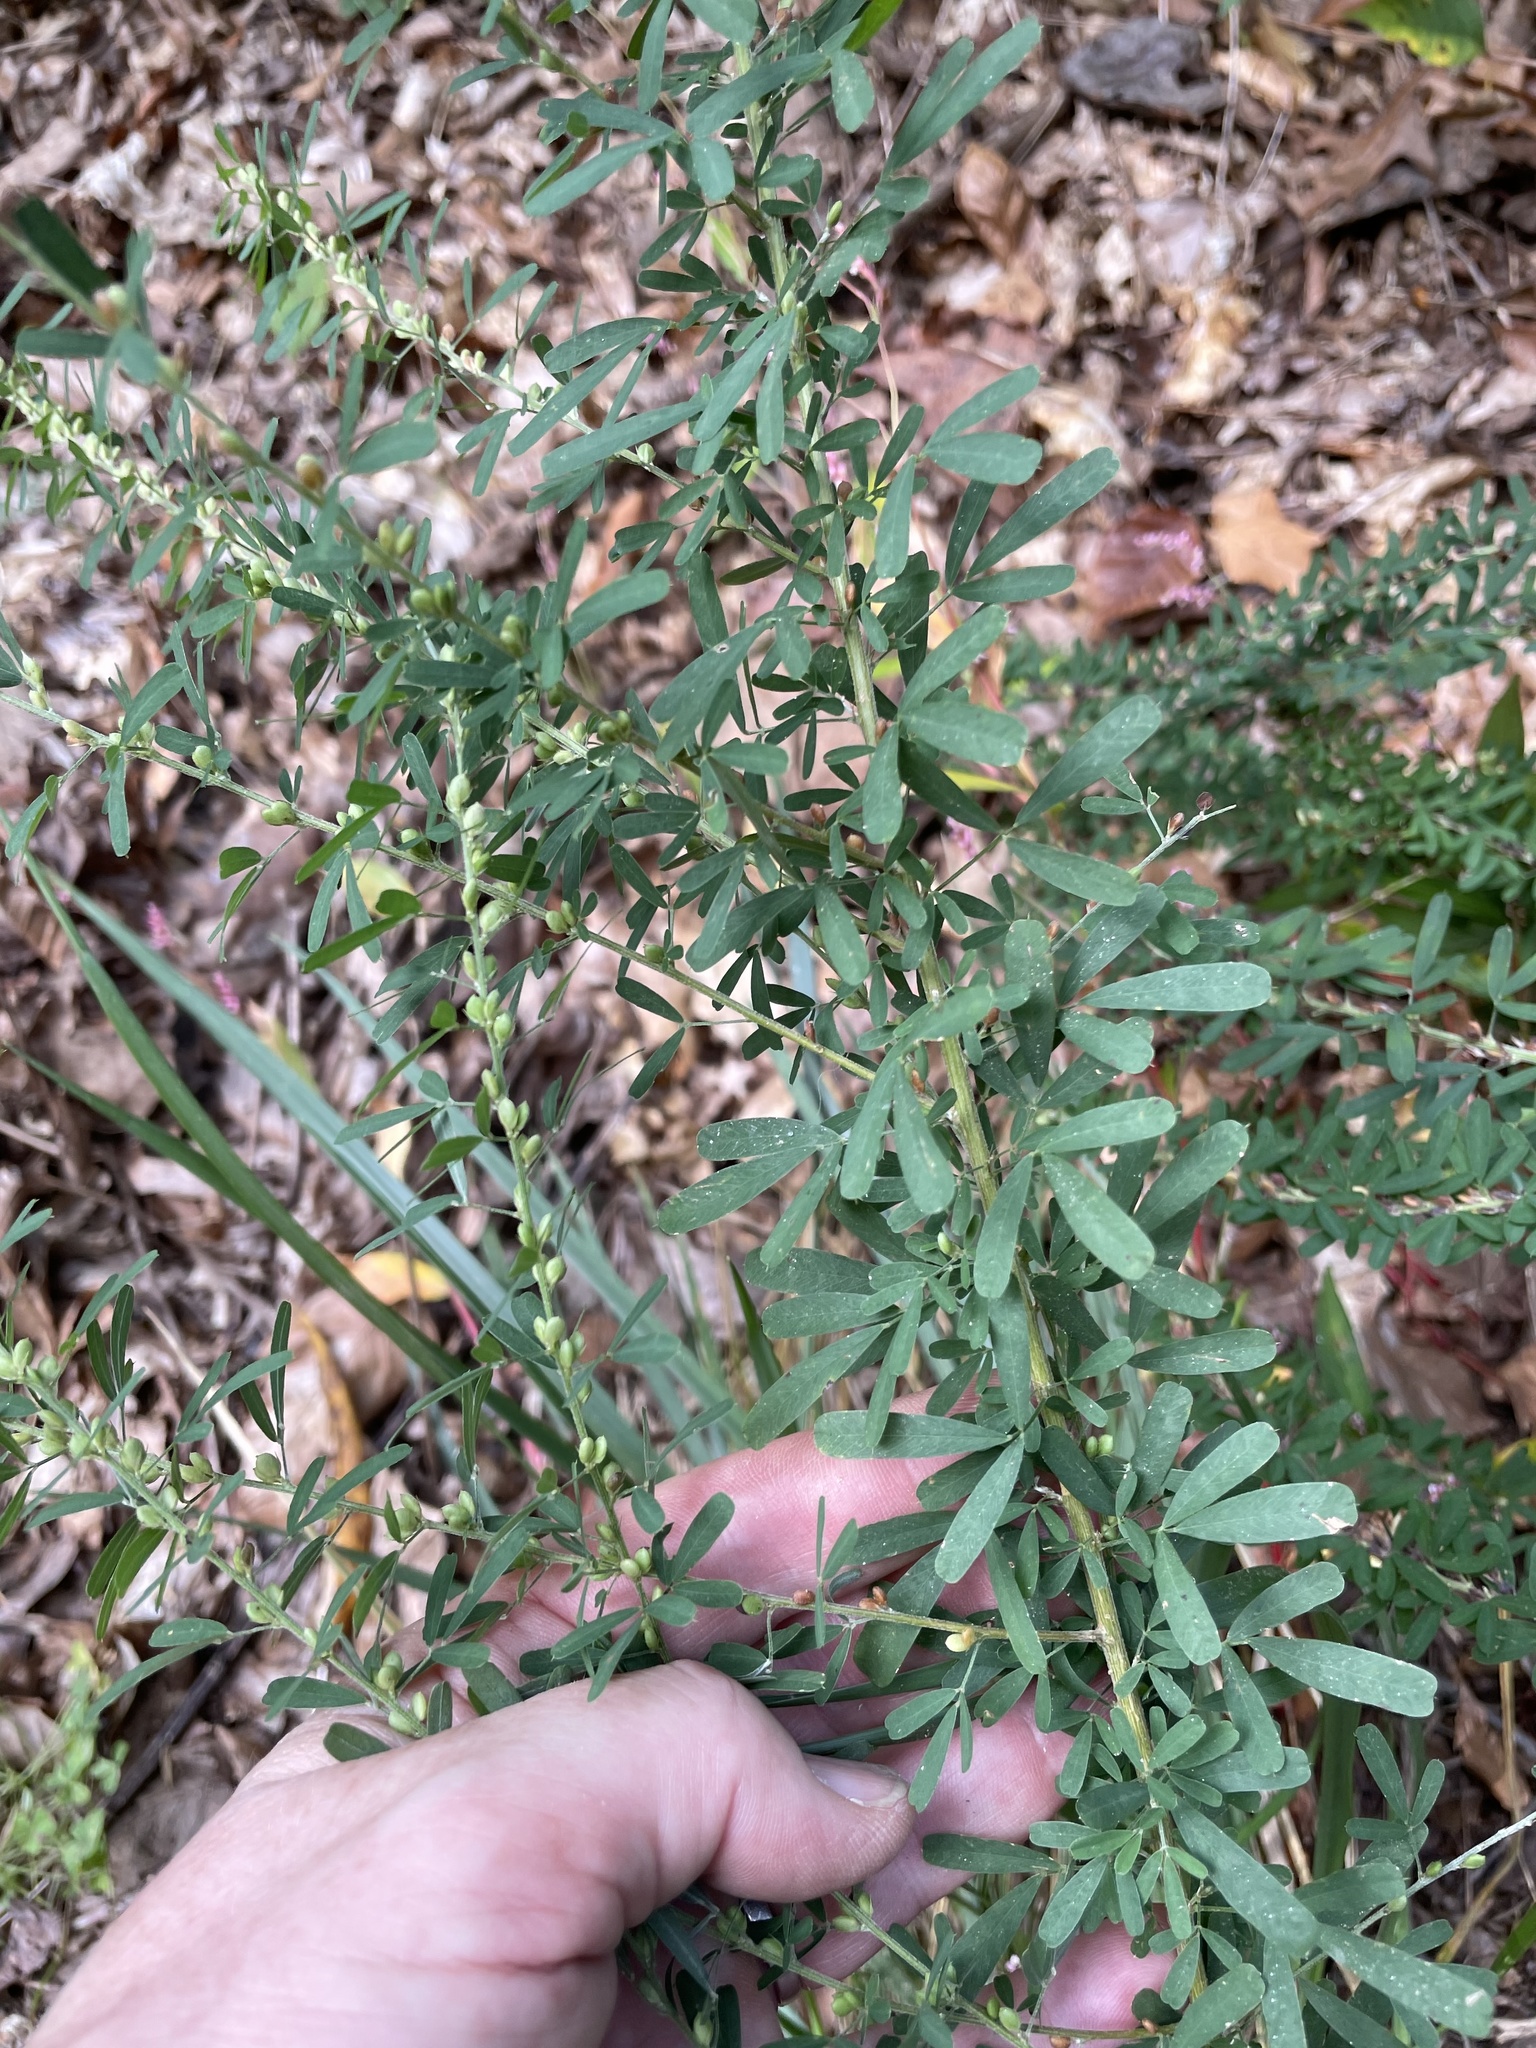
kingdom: Plantae
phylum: Tracheophyta
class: Magnoliopsida
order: Fabales
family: Fabaceae
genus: Lespedeza
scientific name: Lespedeza cuneata
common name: Chinese bush-clover
